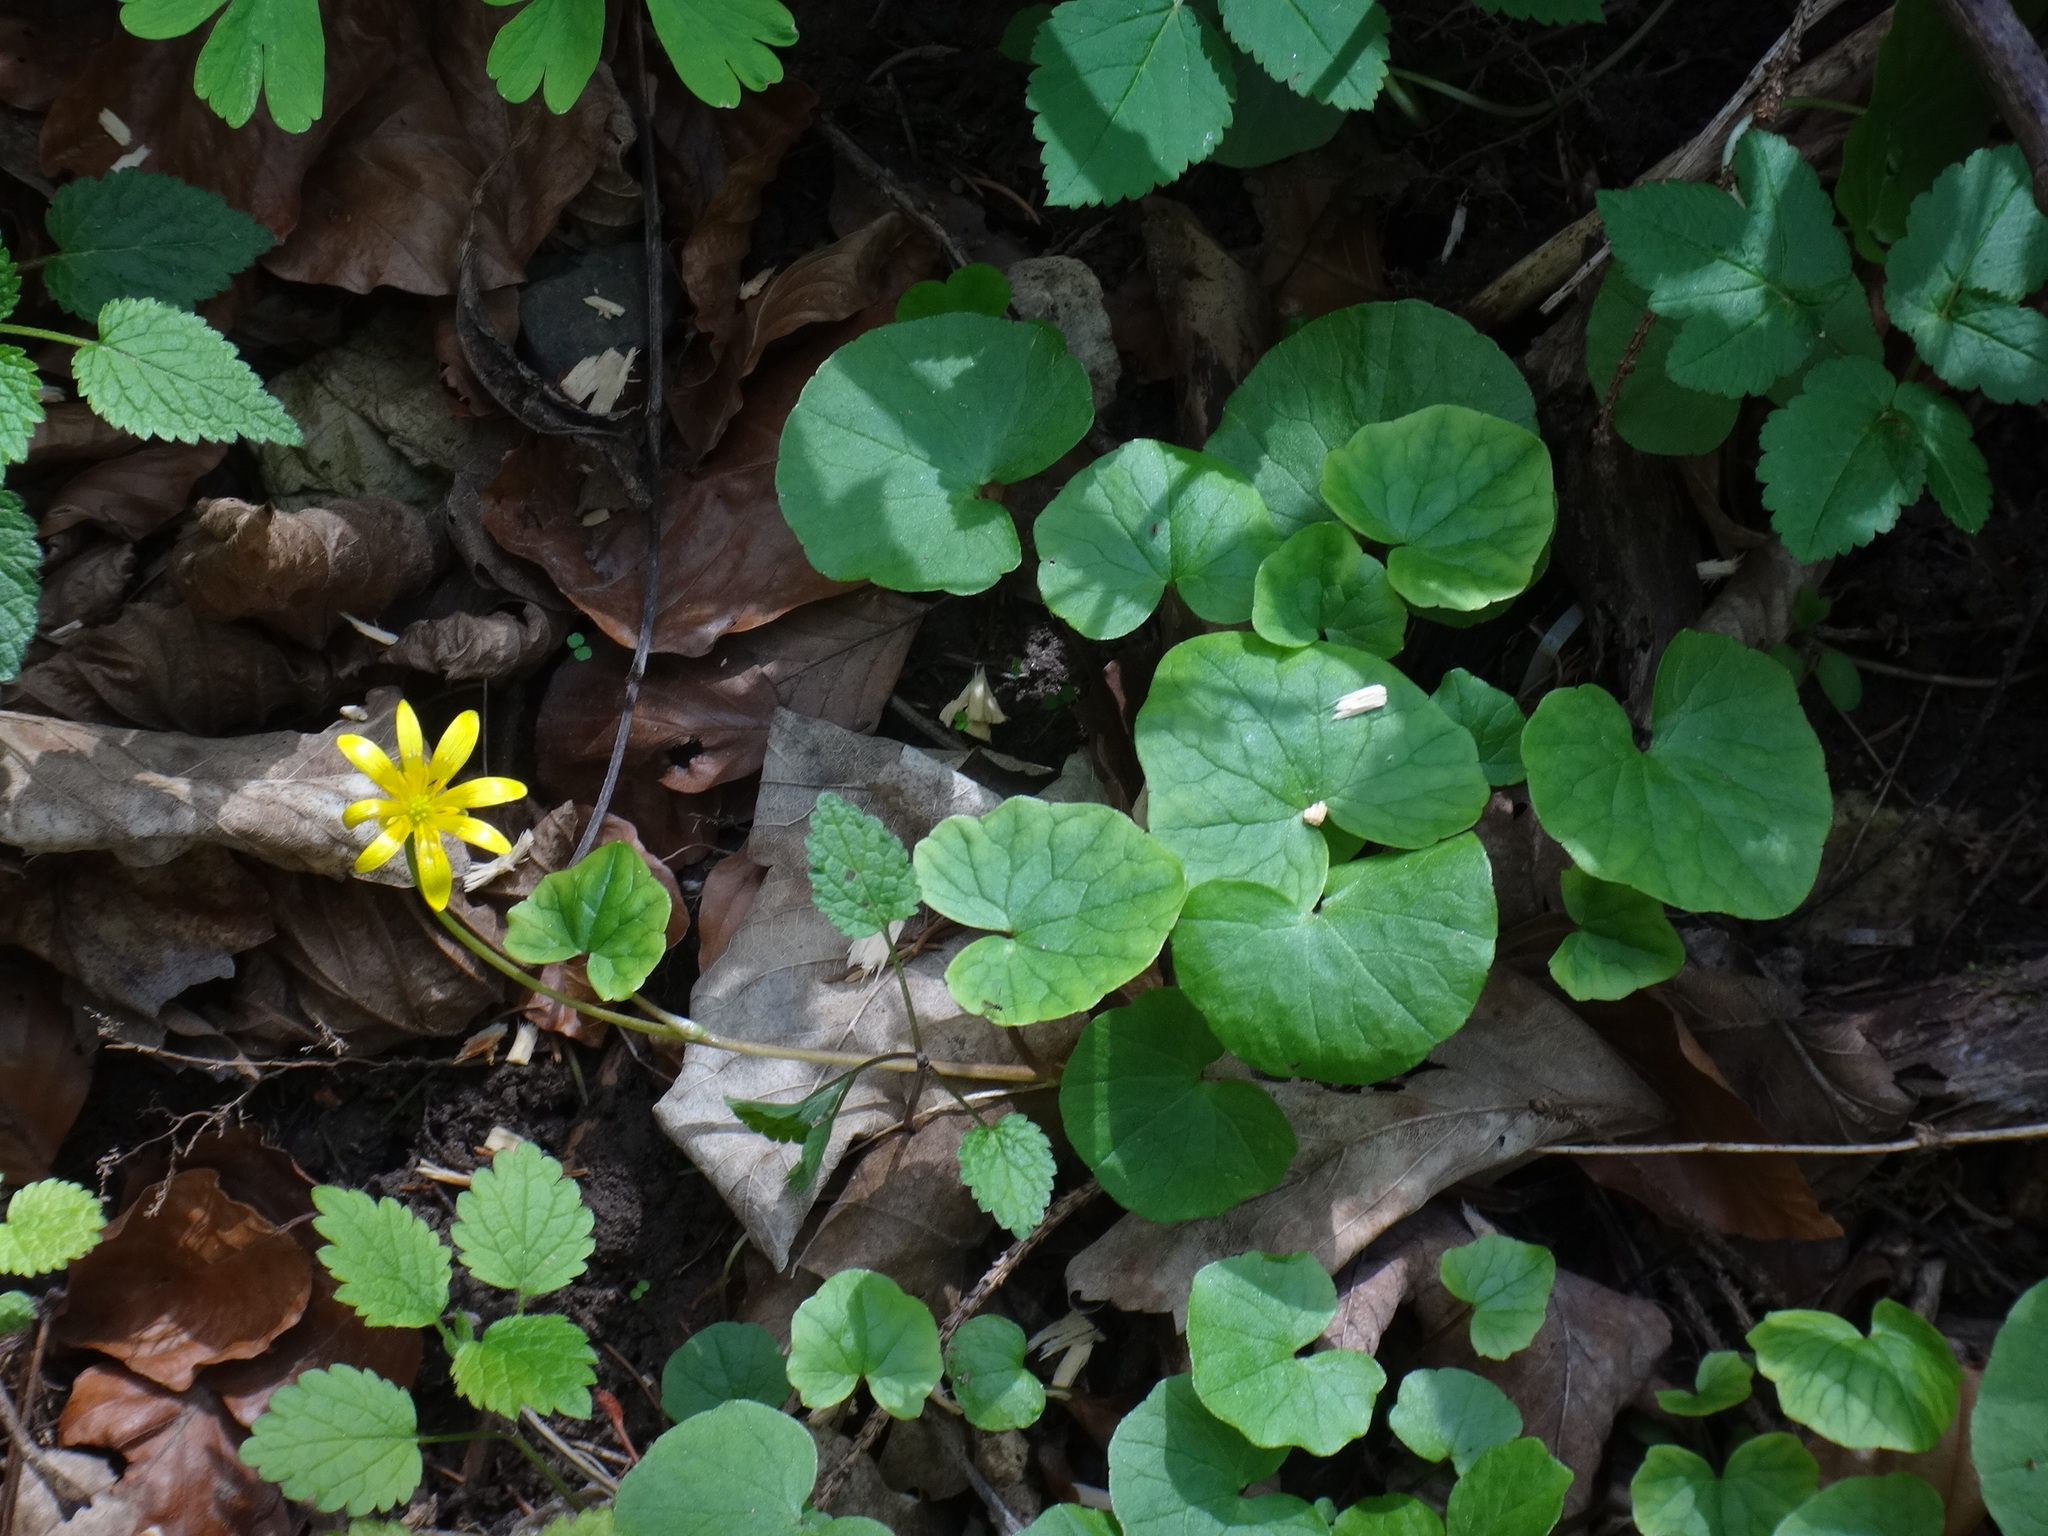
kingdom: Plantae
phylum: Tracheophyta
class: Magnoliopsida
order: Ranunculales
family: Ranunculaceae
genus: Ficaria
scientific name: Ficaria verna
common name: Lesser celandine
